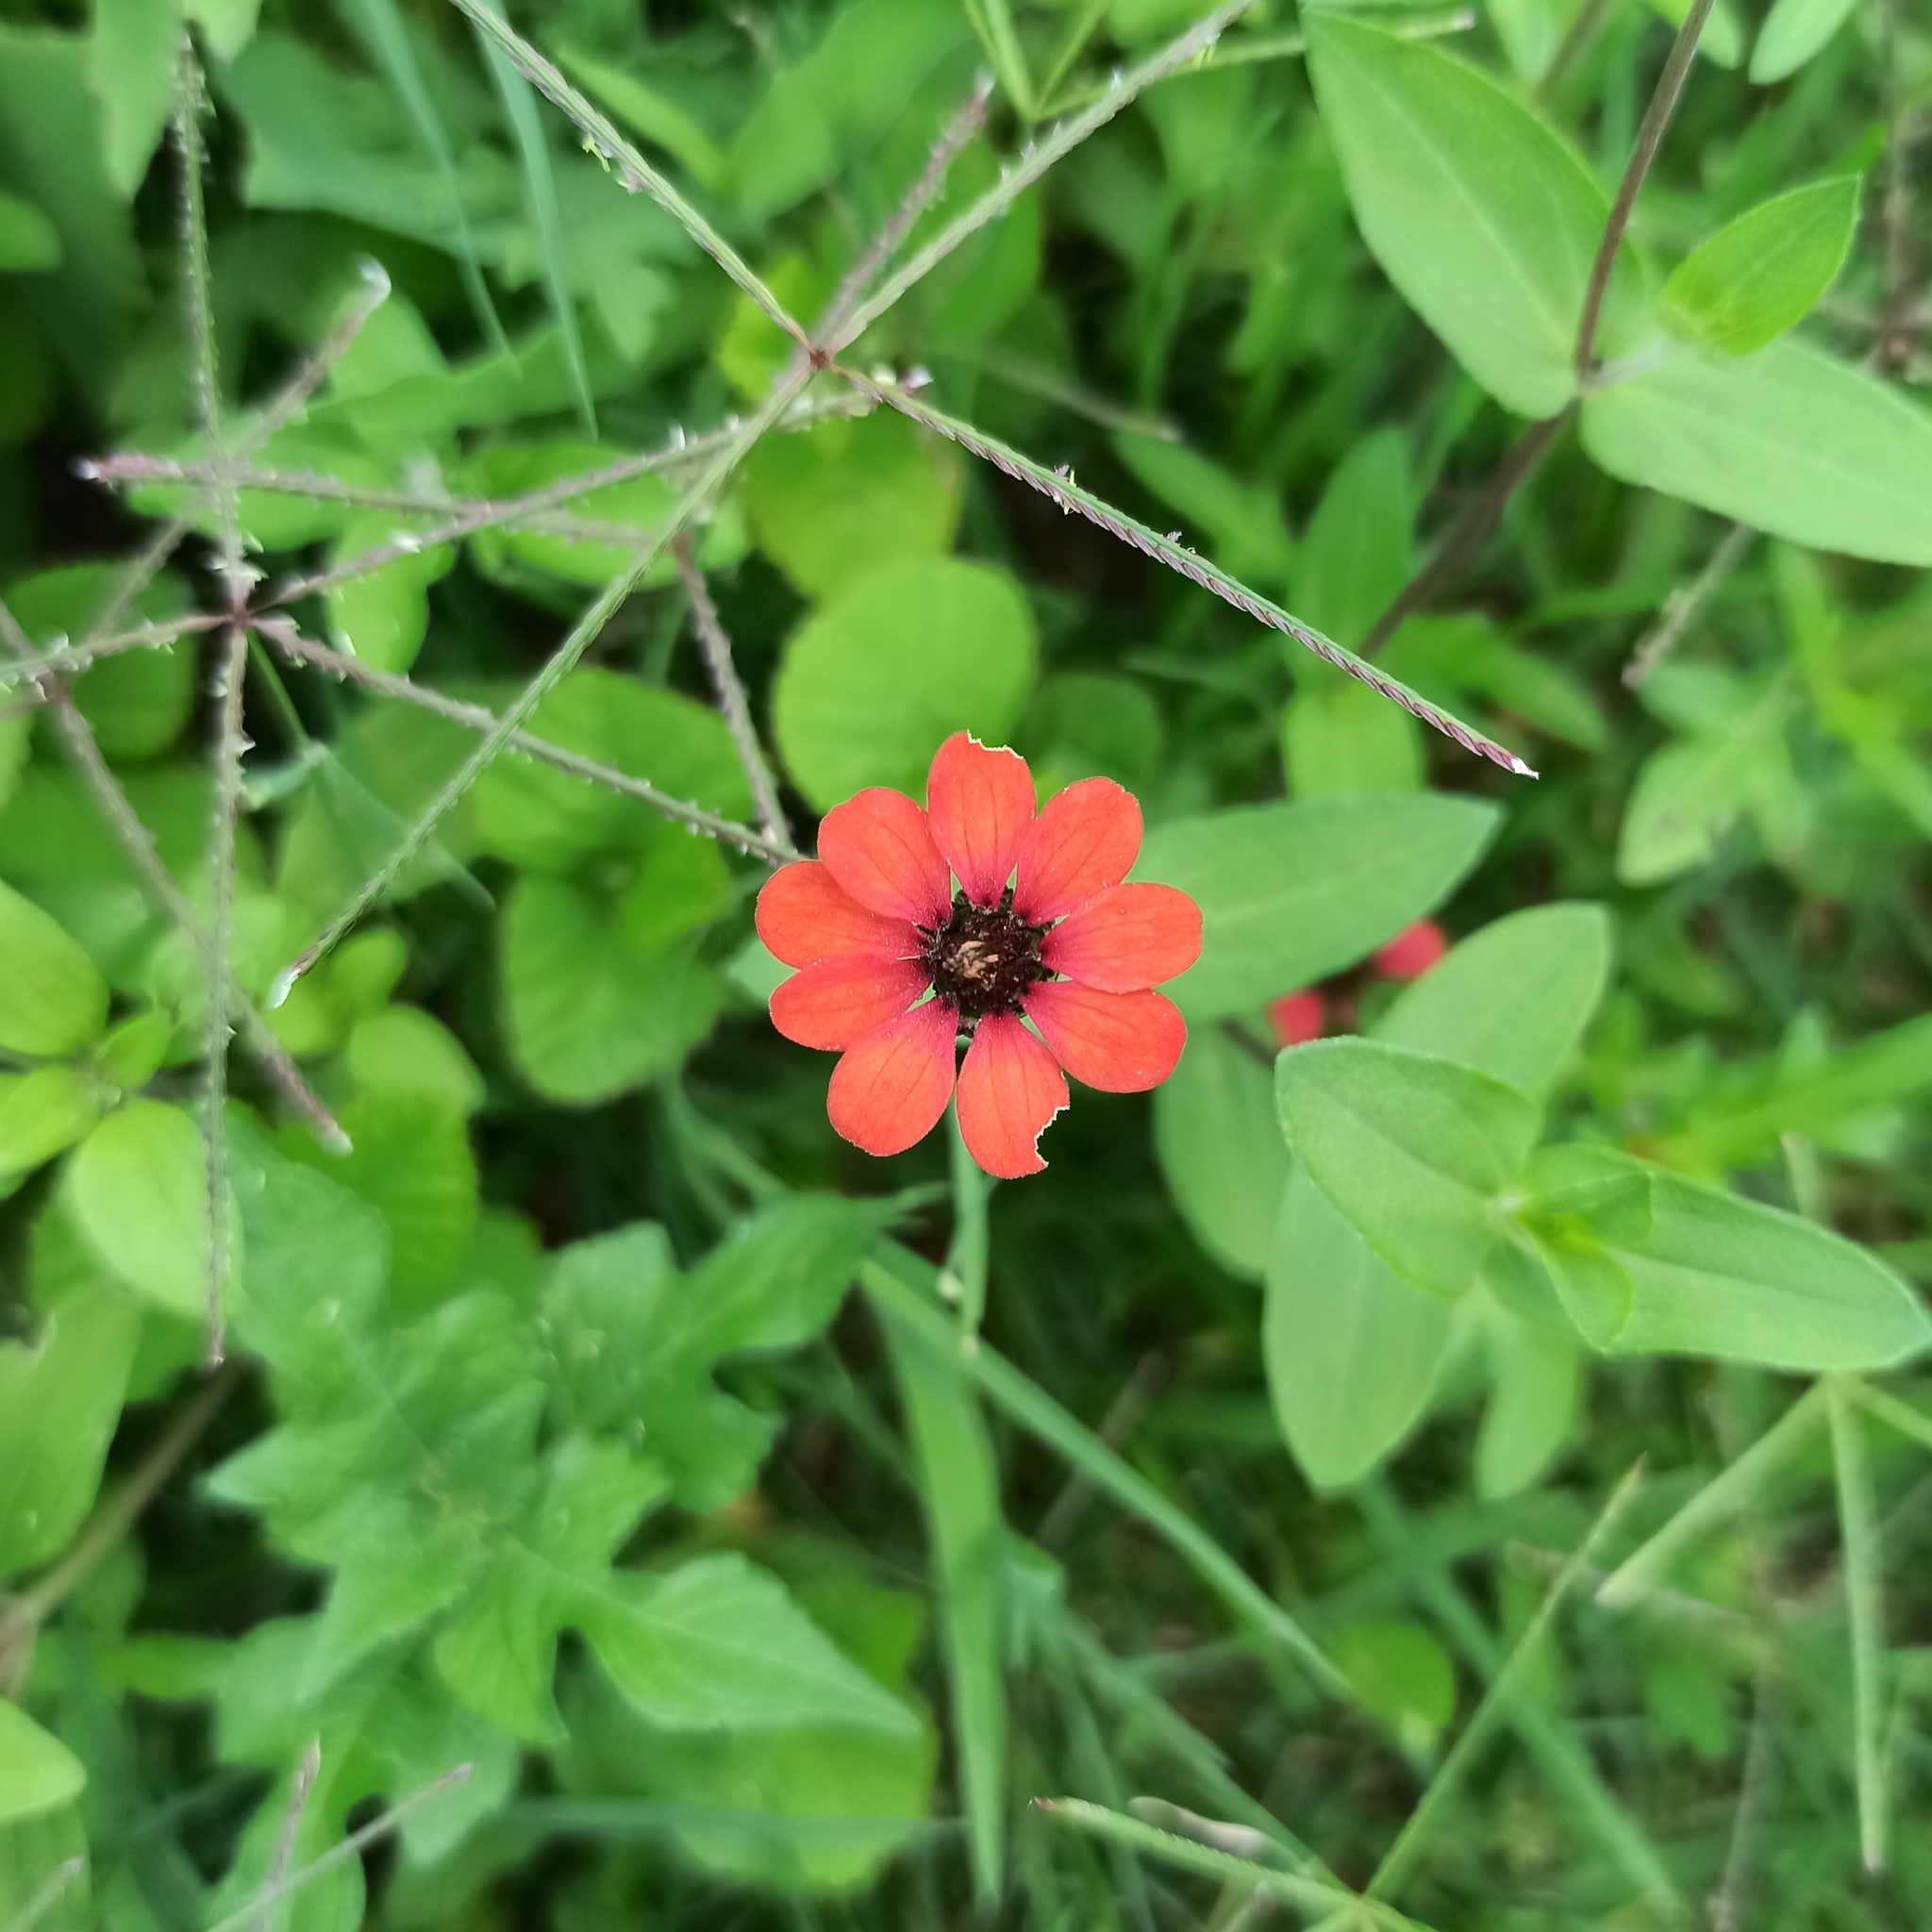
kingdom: Plantae
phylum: Tracheophyta
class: Magnoliopsida
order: Asterales
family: Asteraceae
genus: Zinnia
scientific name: Zinnia peruviana
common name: Peruvian zinnia
